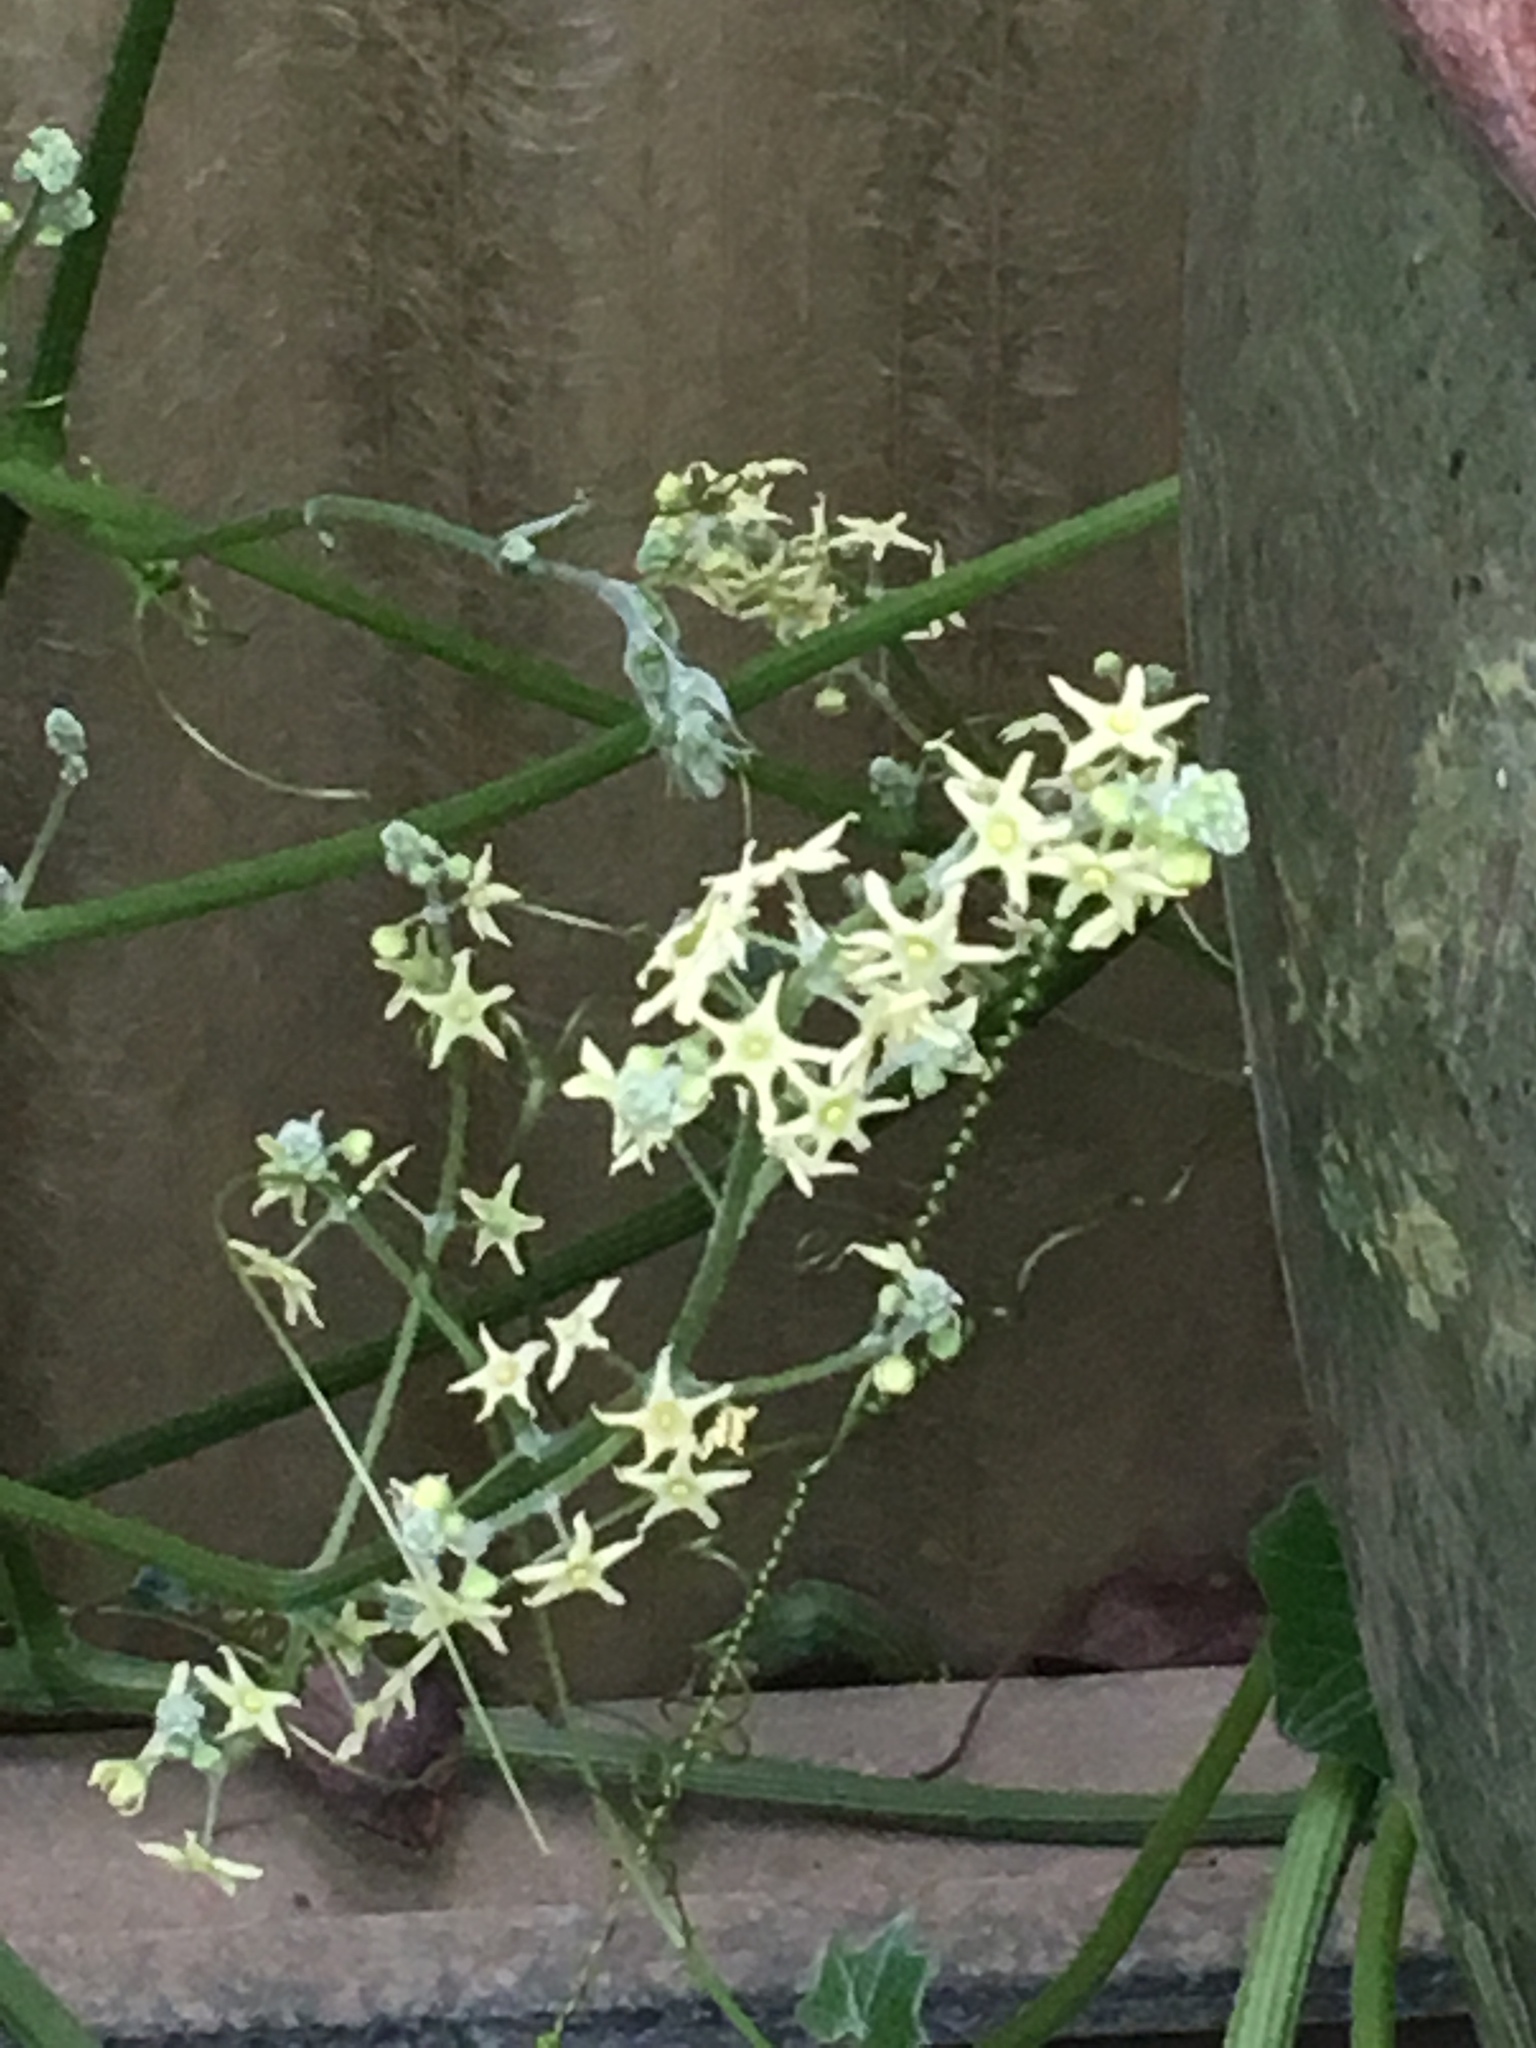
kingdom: Plantae
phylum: Tracheophyta
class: Magnoliopsida
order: Cucurbitales
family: Cucurbitaceae
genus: Marah
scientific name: Marah fabacea
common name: California manroot
